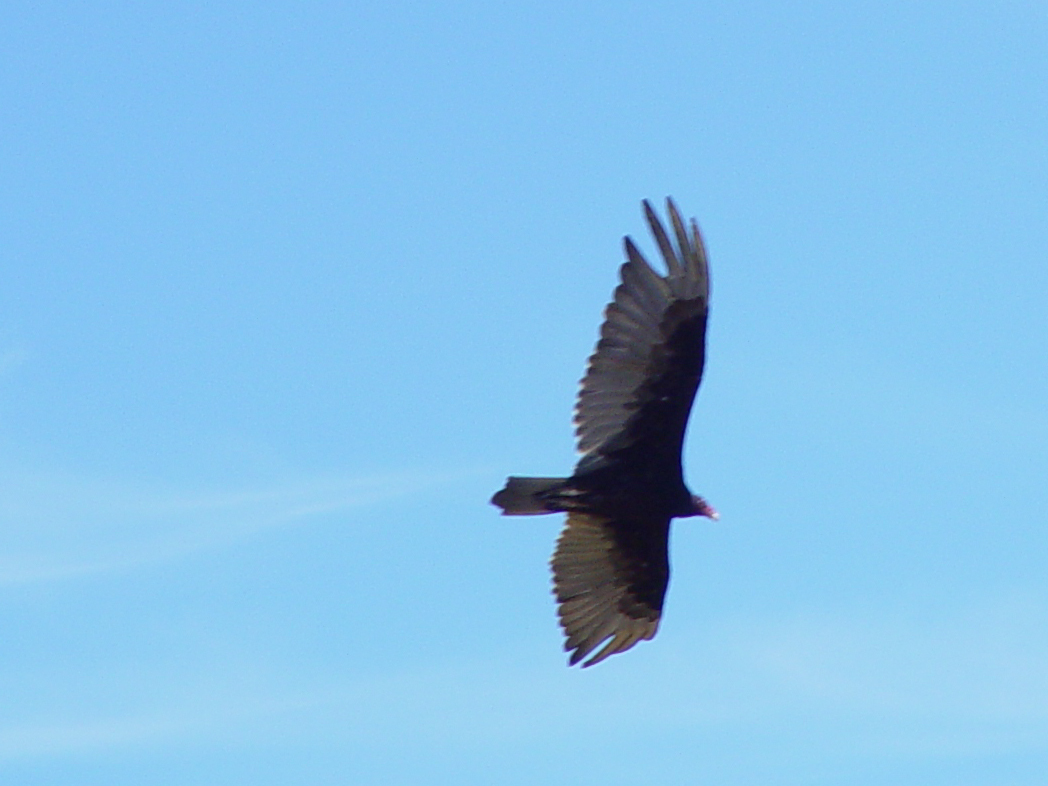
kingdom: Animalia
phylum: Chordata
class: Aves
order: Accipitriformes
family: Cathartidae
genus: Cathartes
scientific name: Cathartes aura
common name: Turkey vulture
